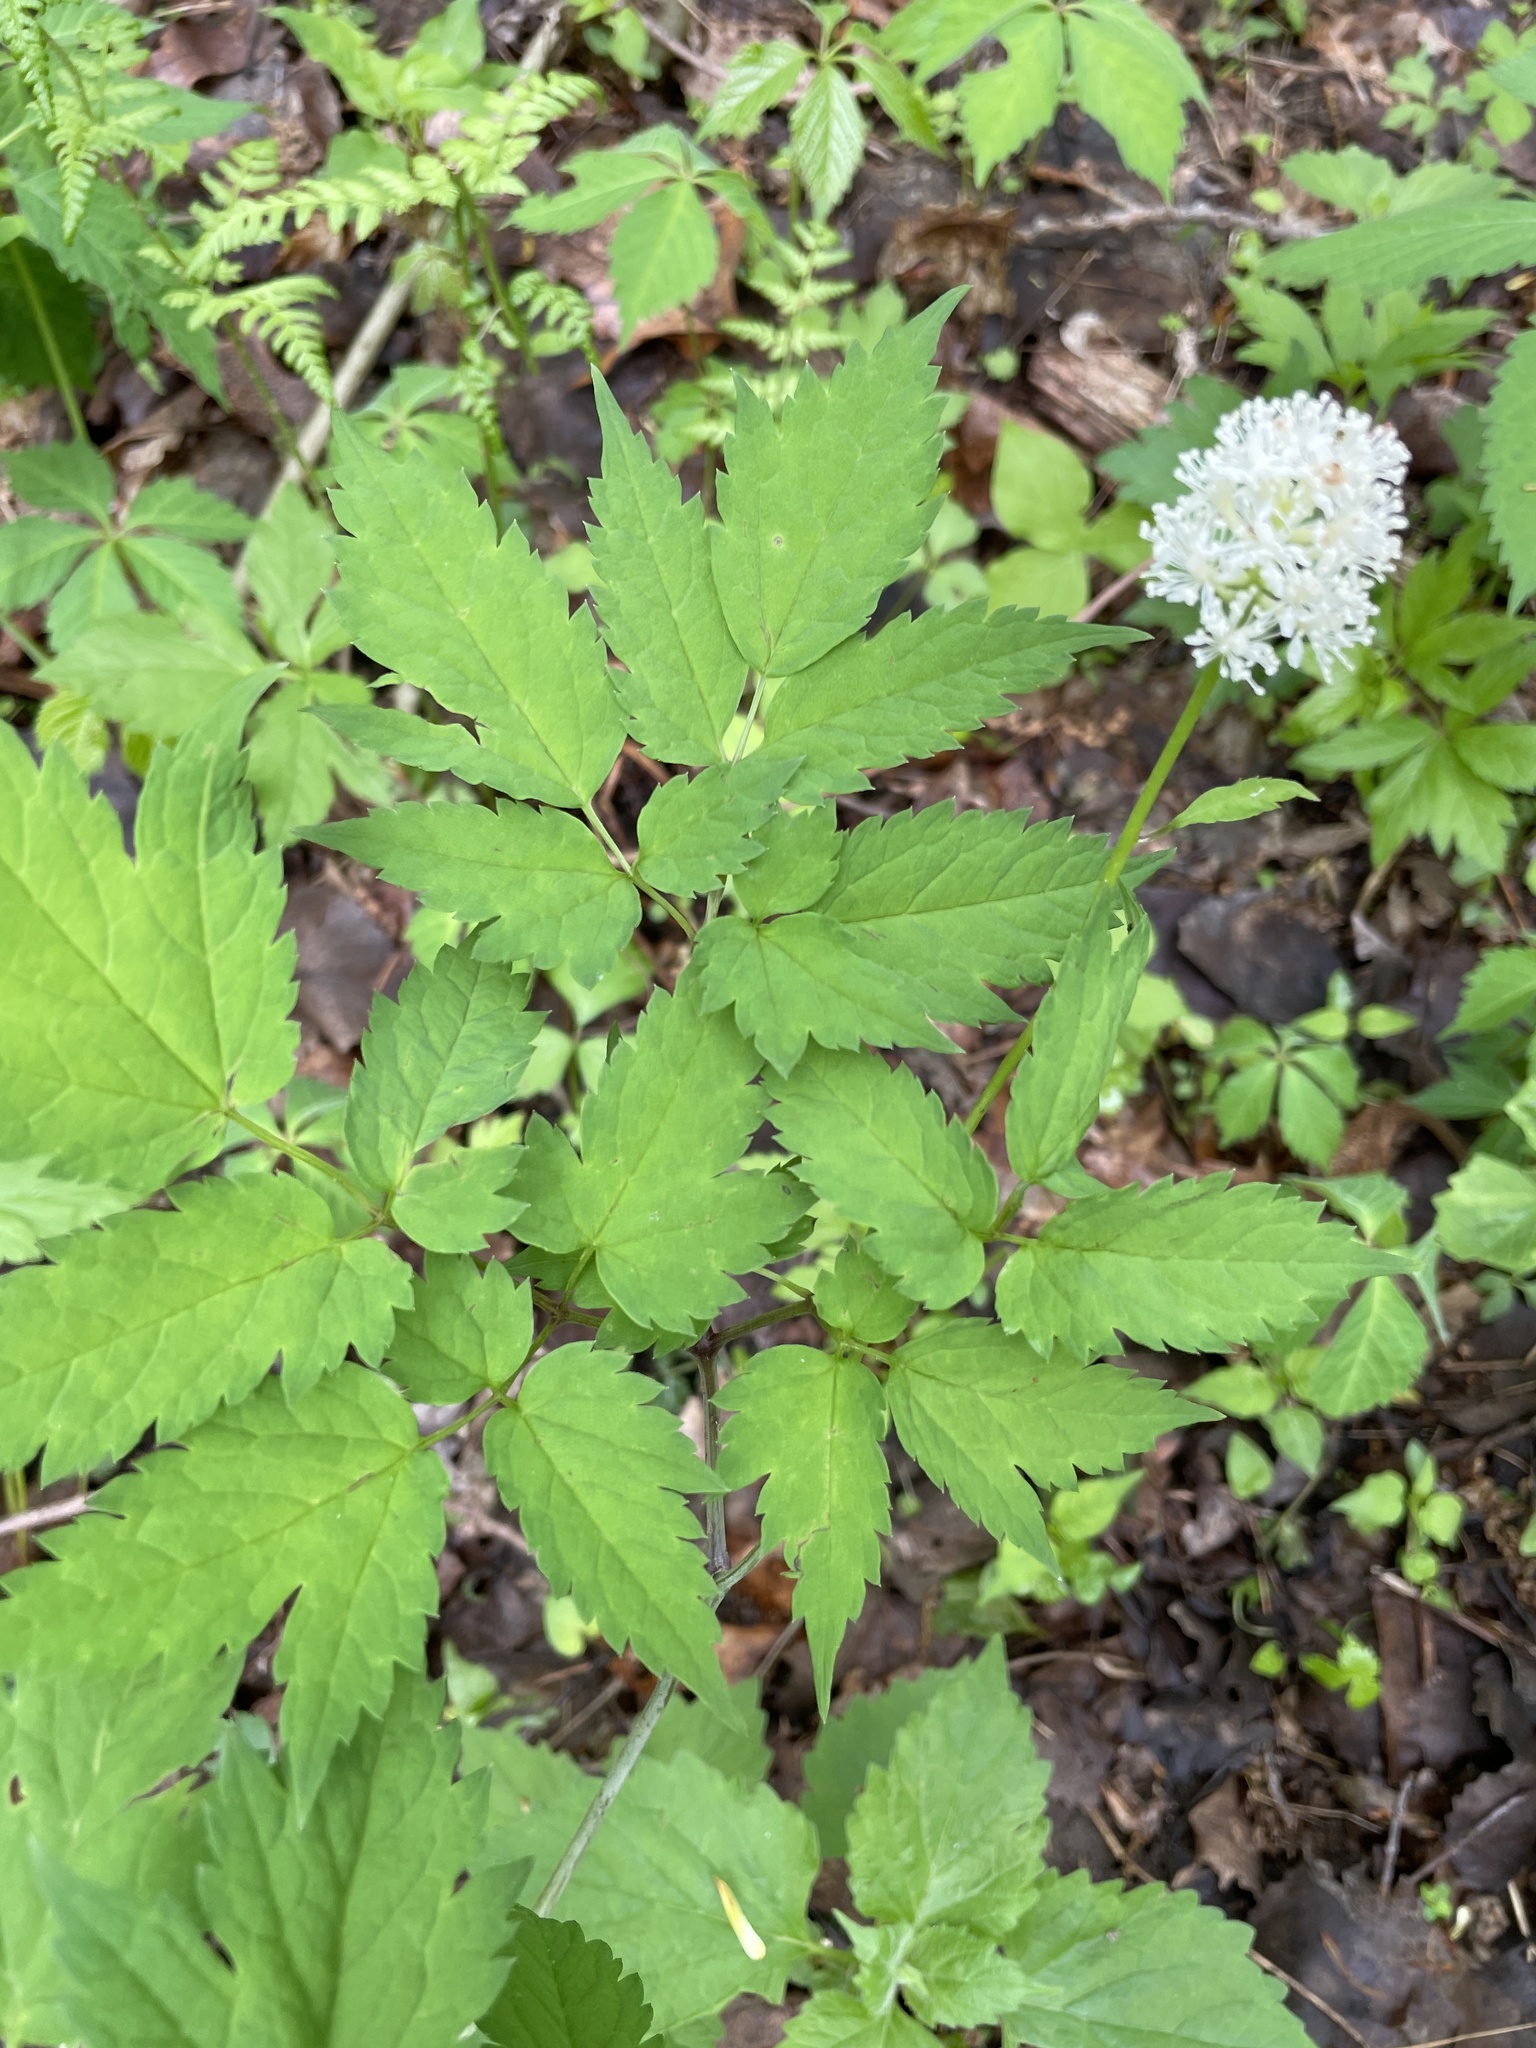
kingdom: Plantae
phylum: Tracheophyta
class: Magnoliopsida
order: Ranunculales
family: Ranunculaceae
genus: Actaea
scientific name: Actaea pachypoda
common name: Doll's-eyes
